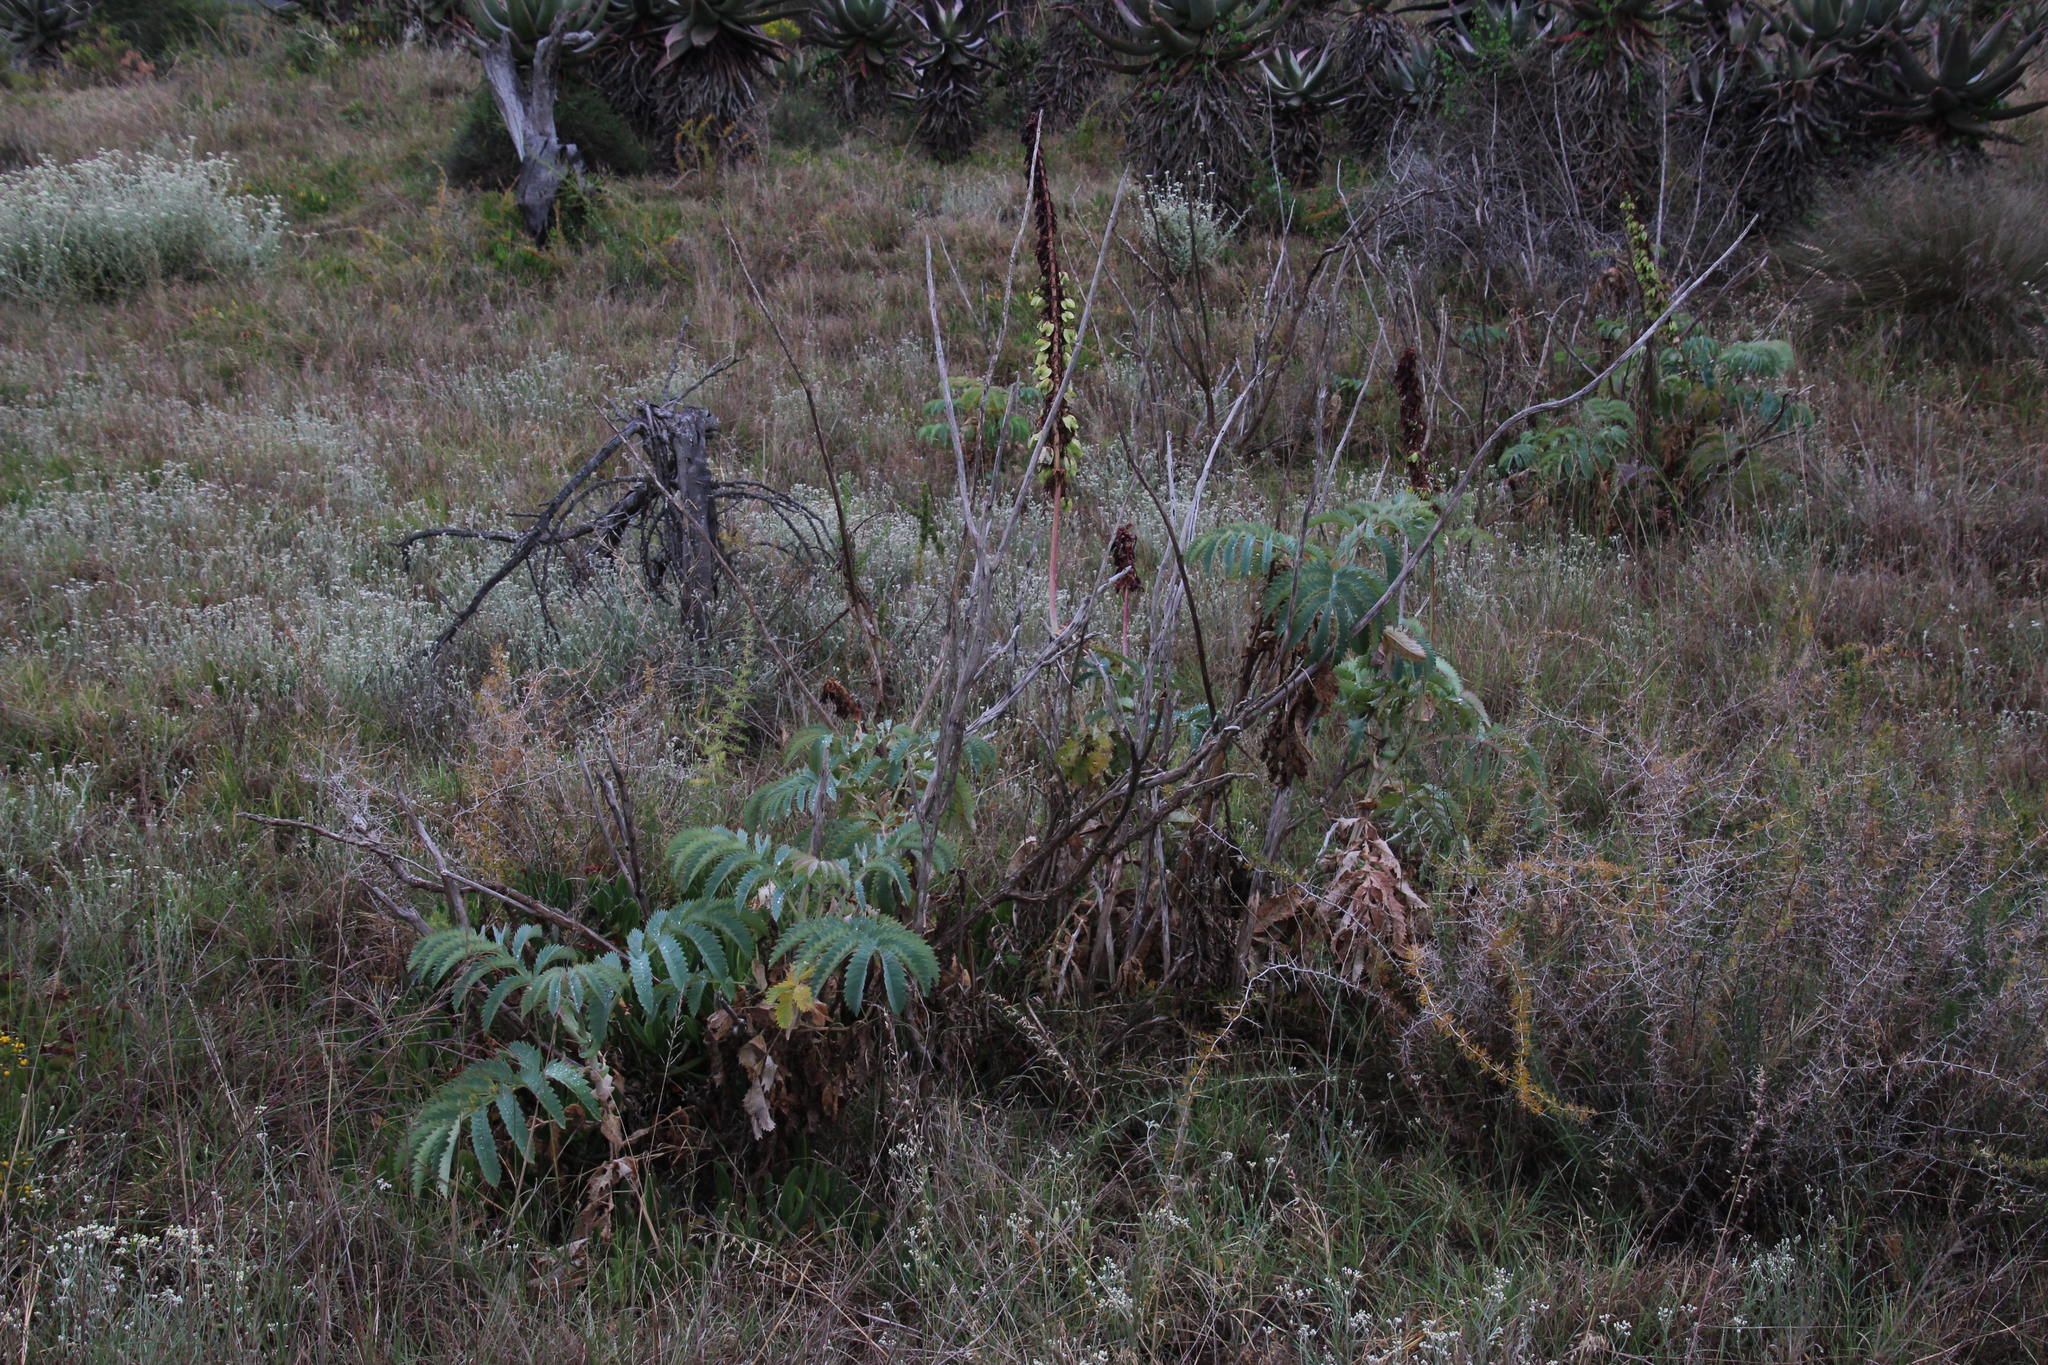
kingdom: Plantae
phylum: Tracheophyta
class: Magnoliopsida
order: Geraniales
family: Melianthaceae
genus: Melianthus
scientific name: Melianthus major
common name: Honey-flower
